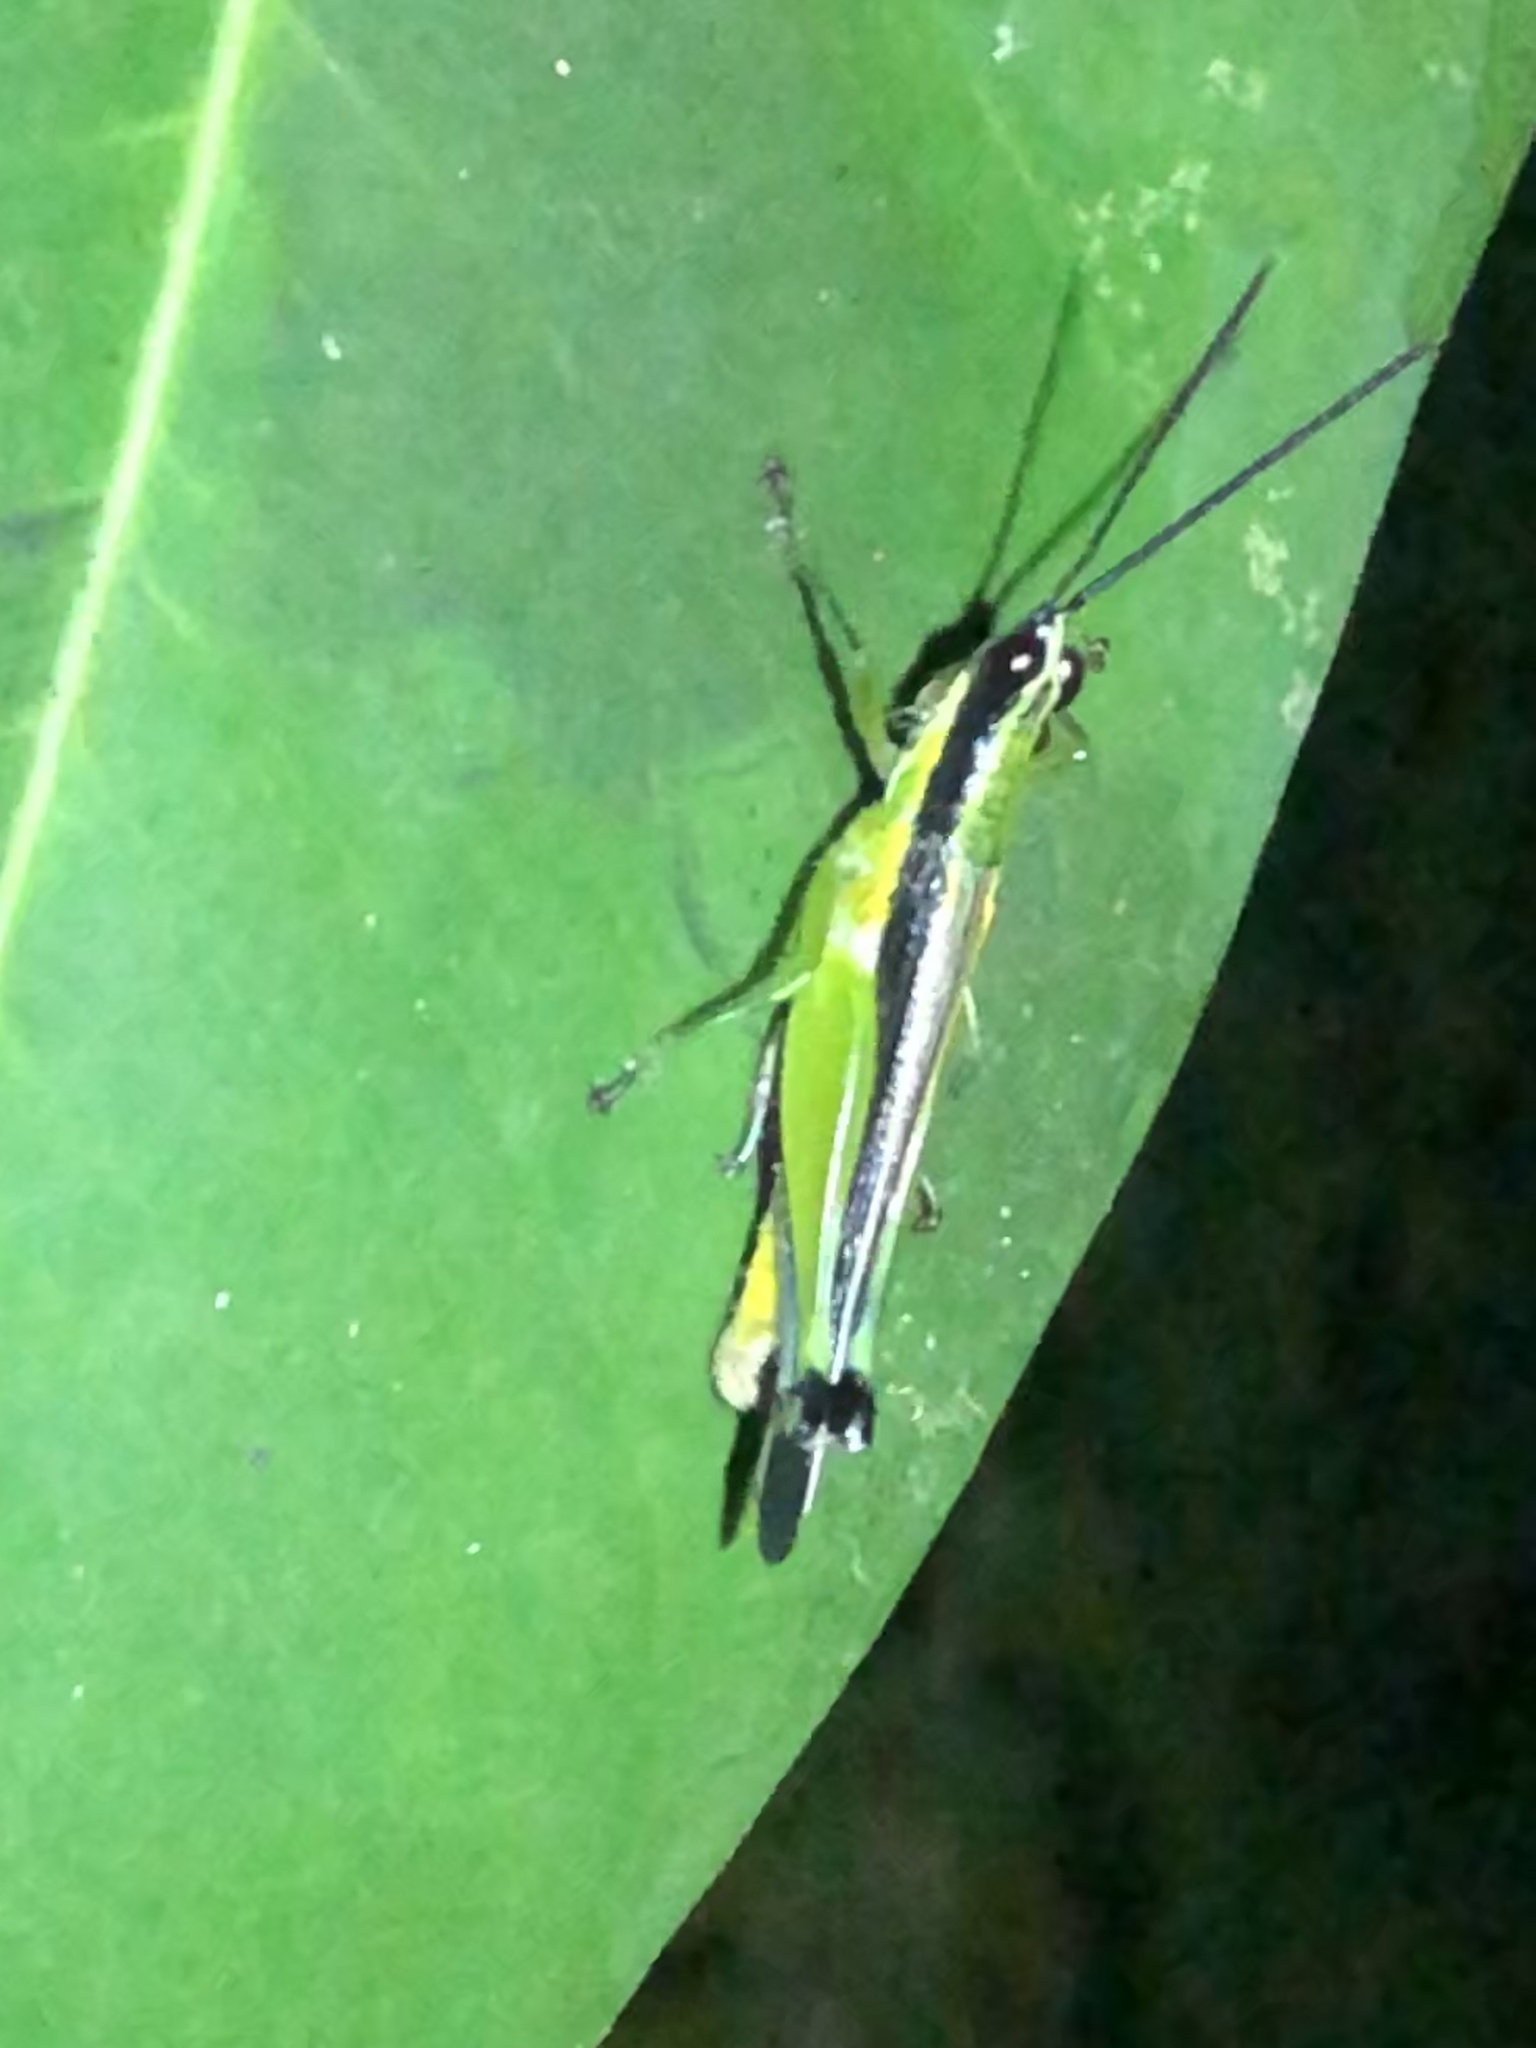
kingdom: Animalia
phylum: Arthropoda
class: Insecta
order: Orthoptera
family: Acrididae
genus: Stenopola
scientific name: Stenopola boliviana
